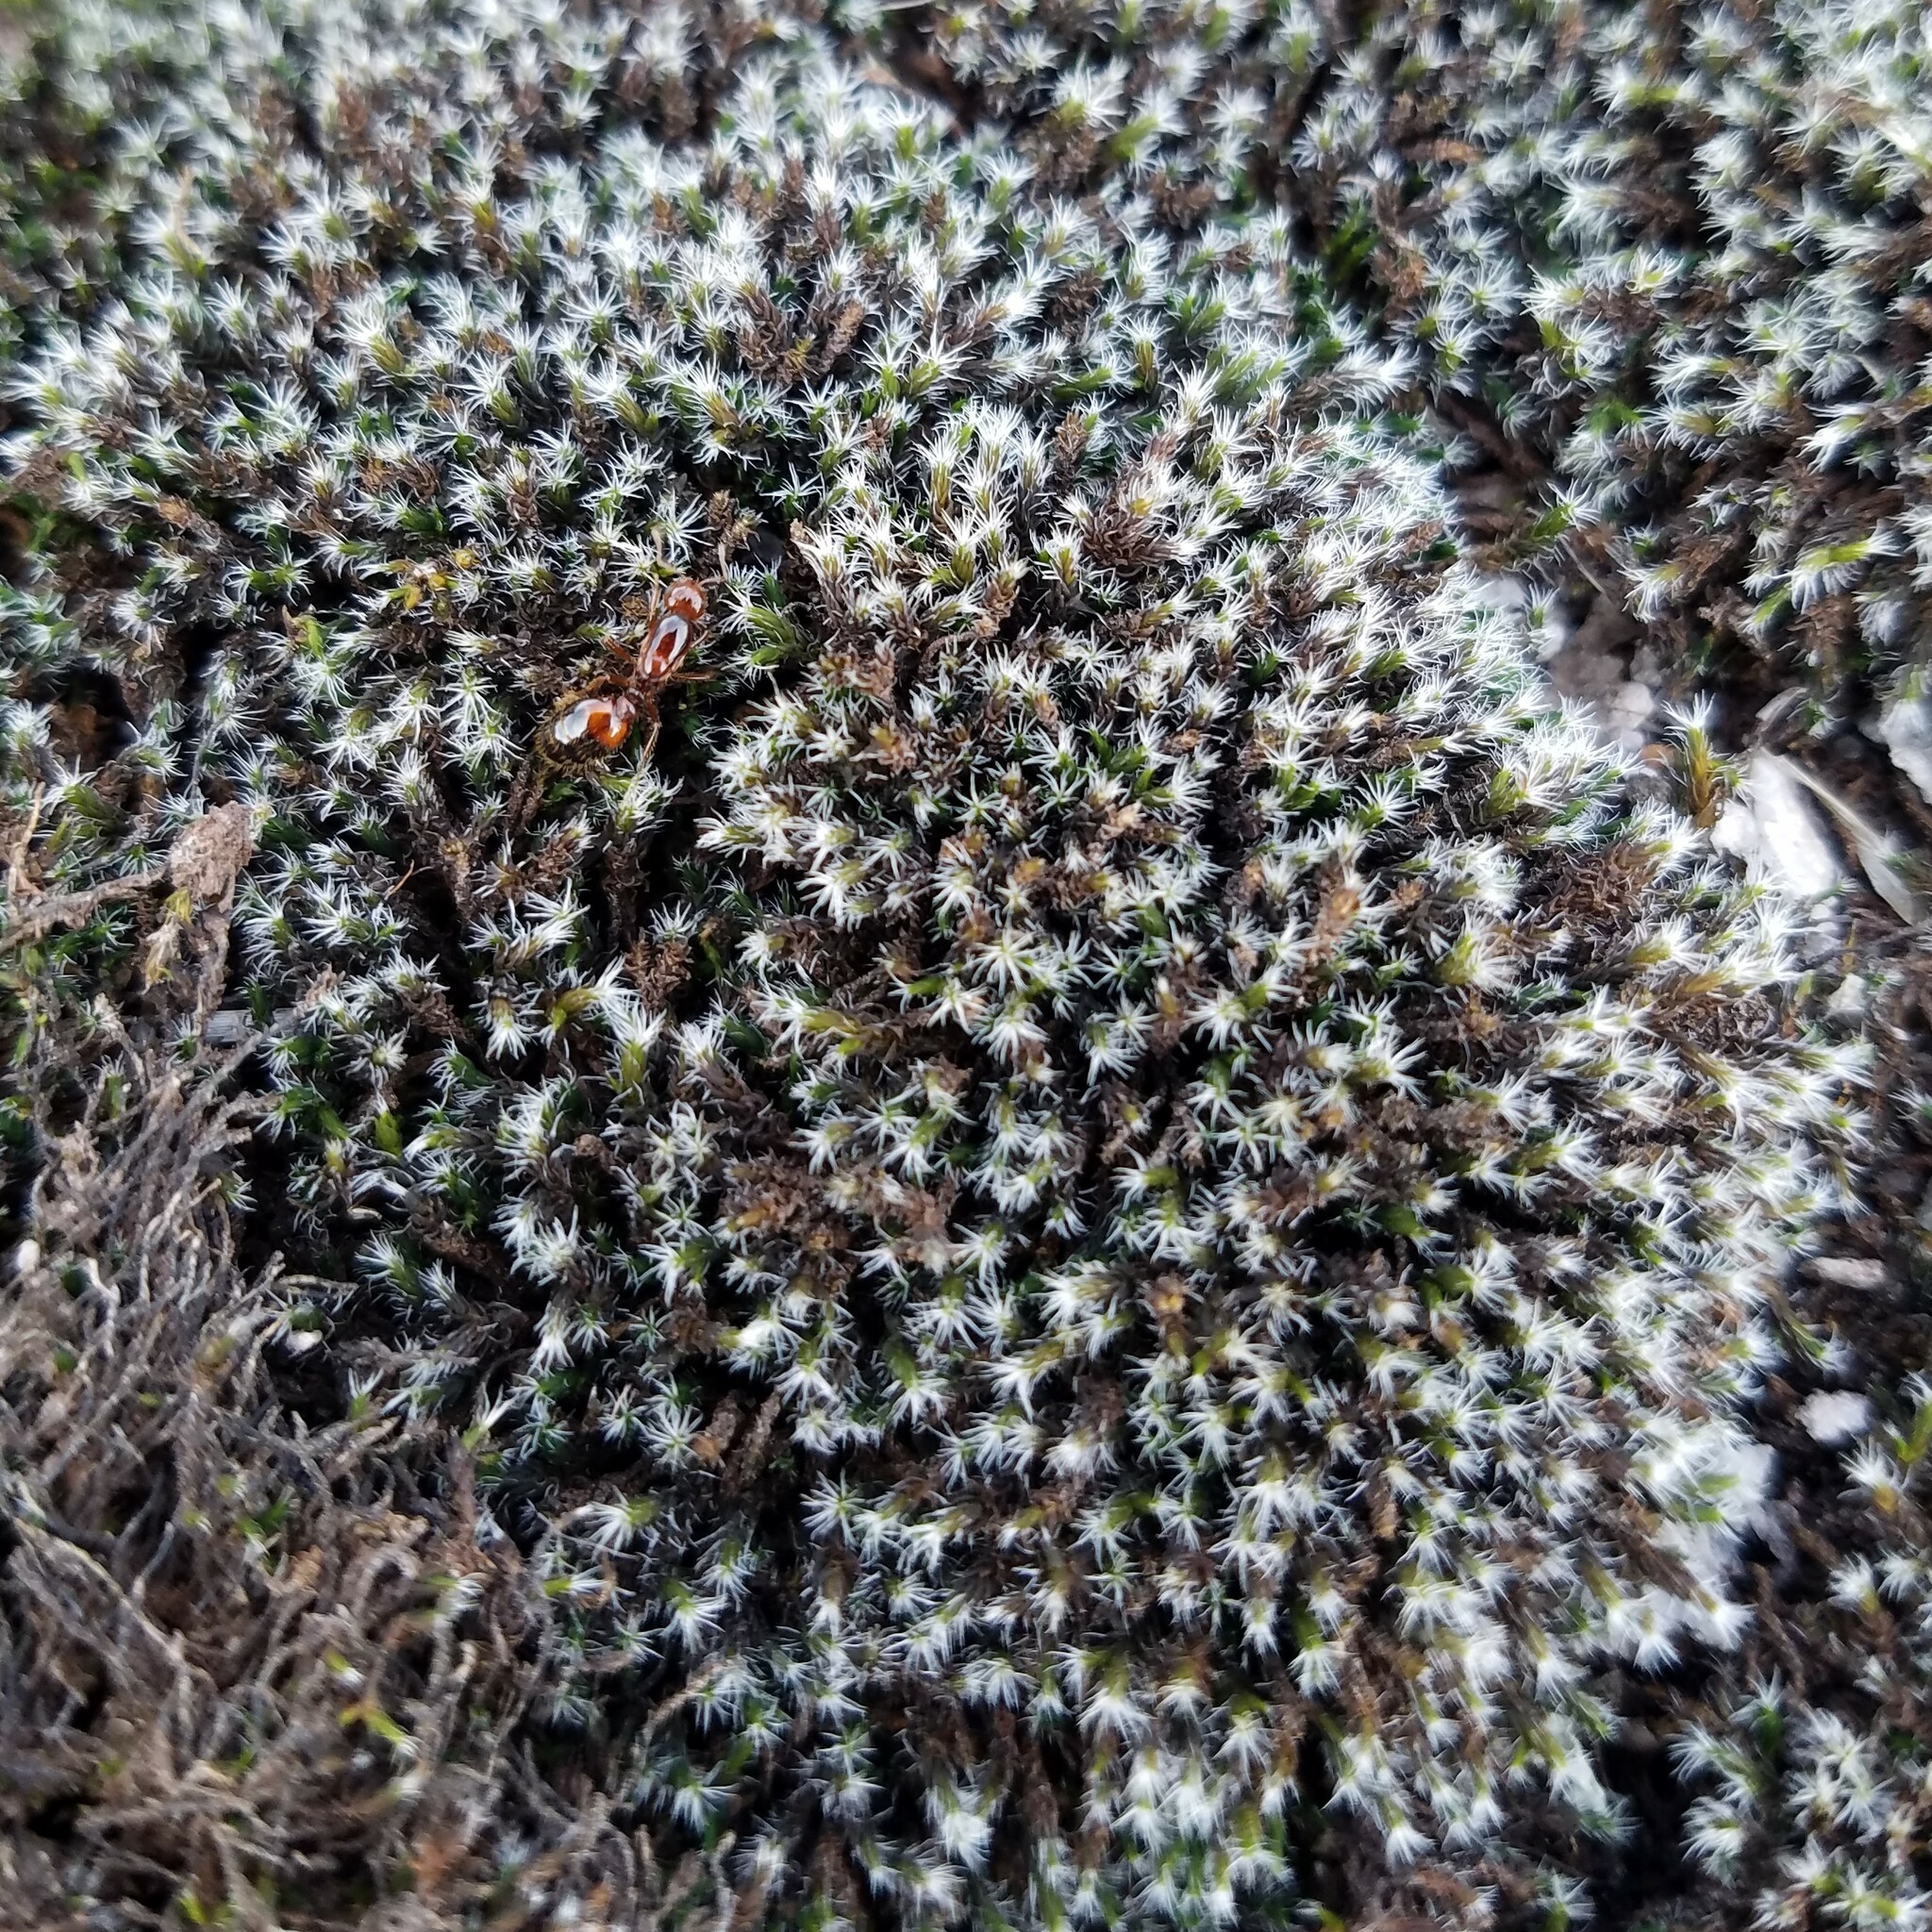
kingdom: Plantae
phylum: Bryophyta
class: Bryopsida
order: Grimmiales
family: Grimmiaceae
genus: Grimmia
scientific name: Grimmia laevigata
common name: Hoary grimmia
